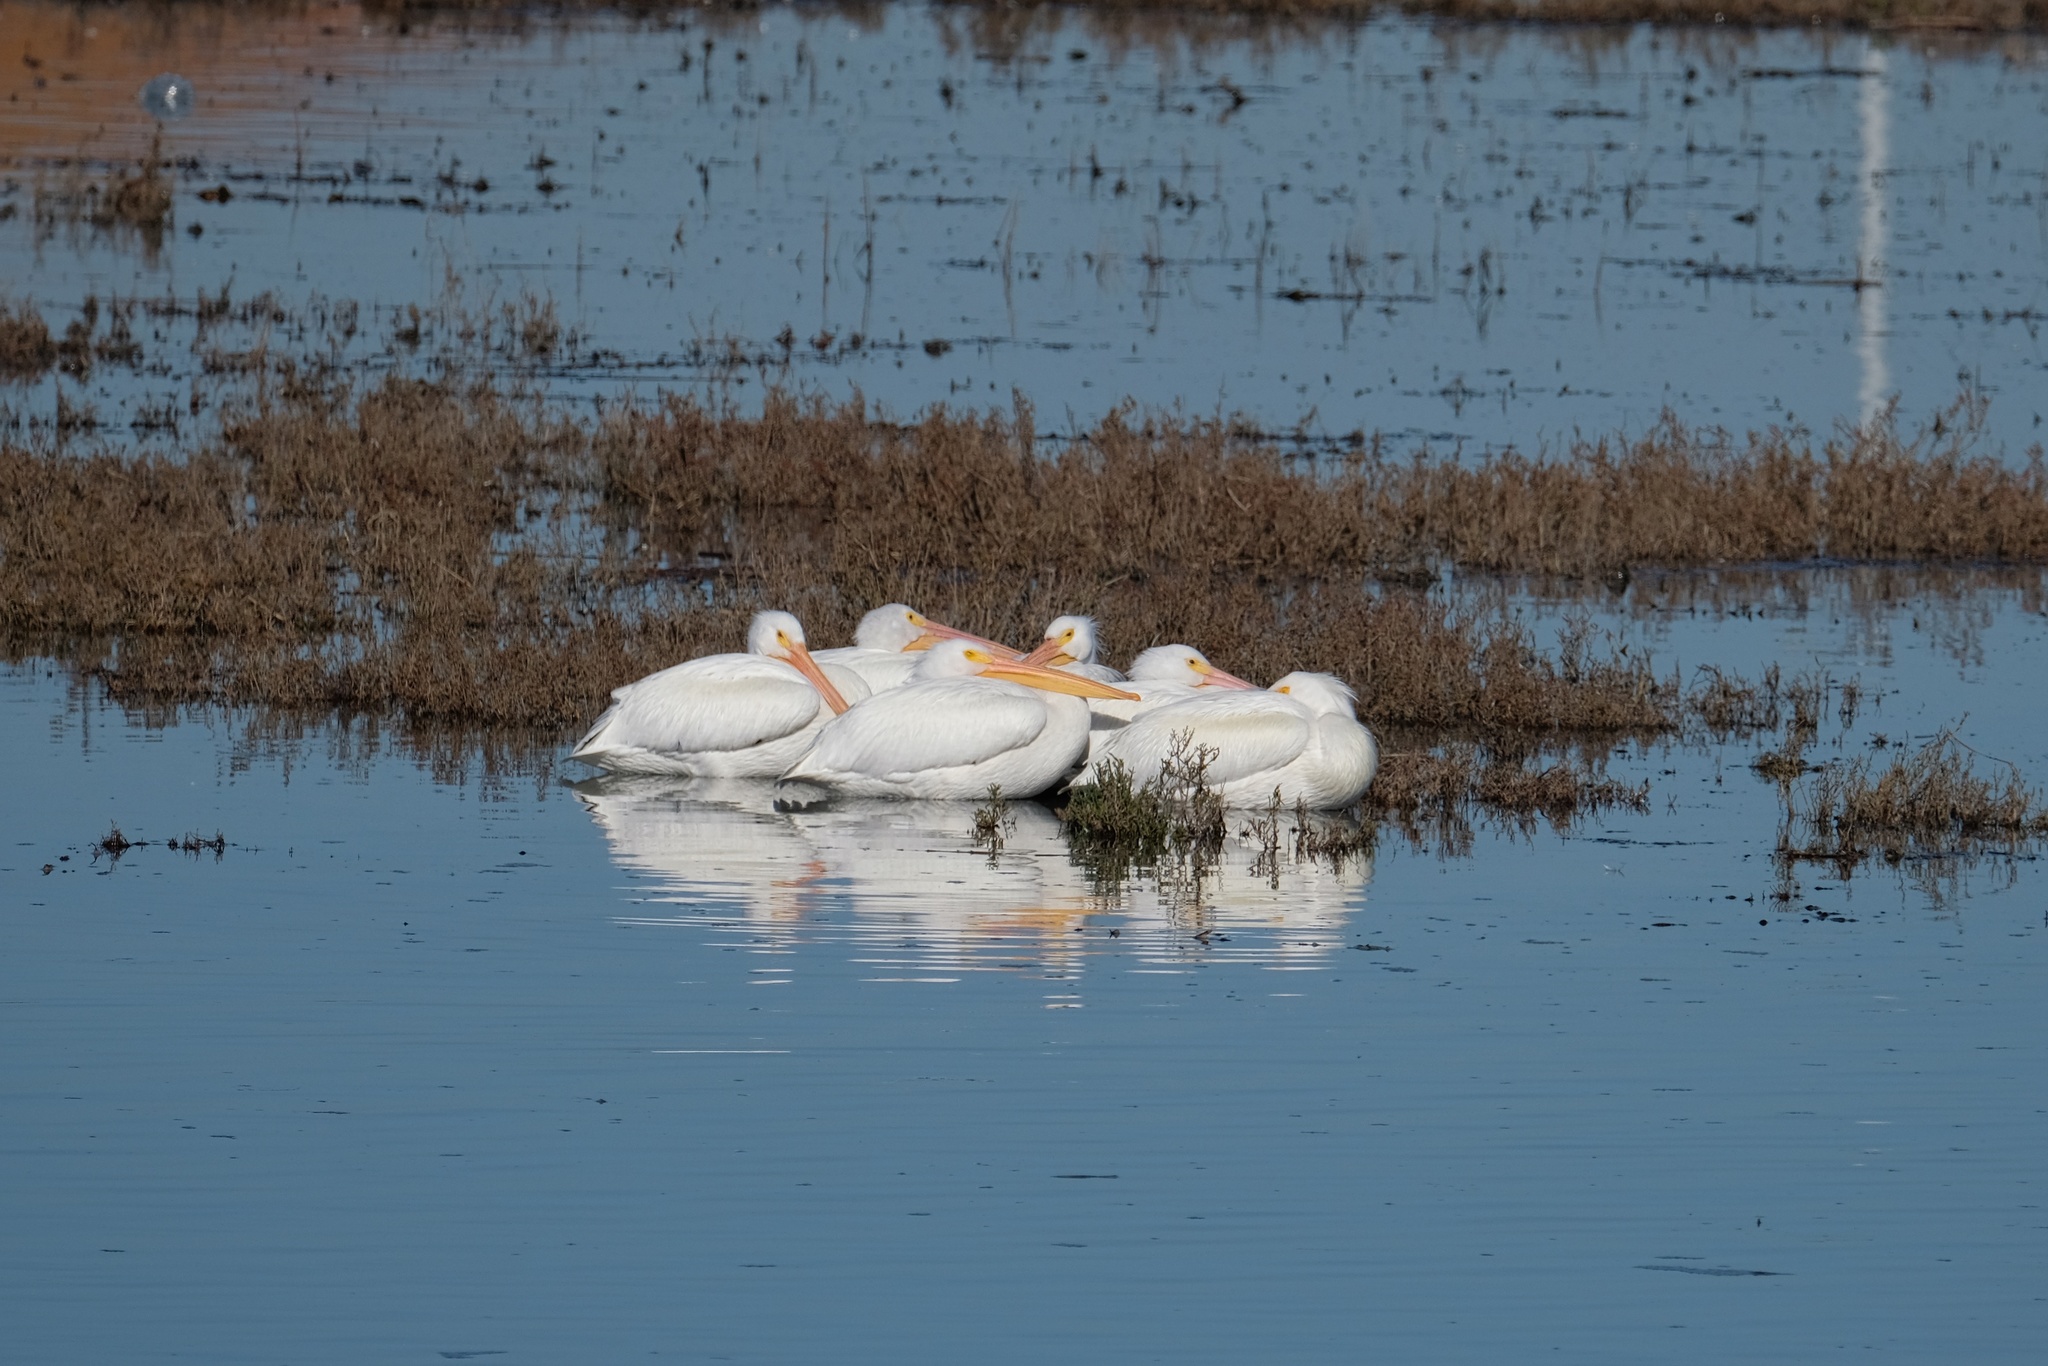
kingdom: Animalia
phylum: Chordata
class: Aves
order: Pelecaniformes
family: Pelecanidae
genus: Pelecanus
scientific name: Pelecanus erythrorhynchos
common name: American white pelican
